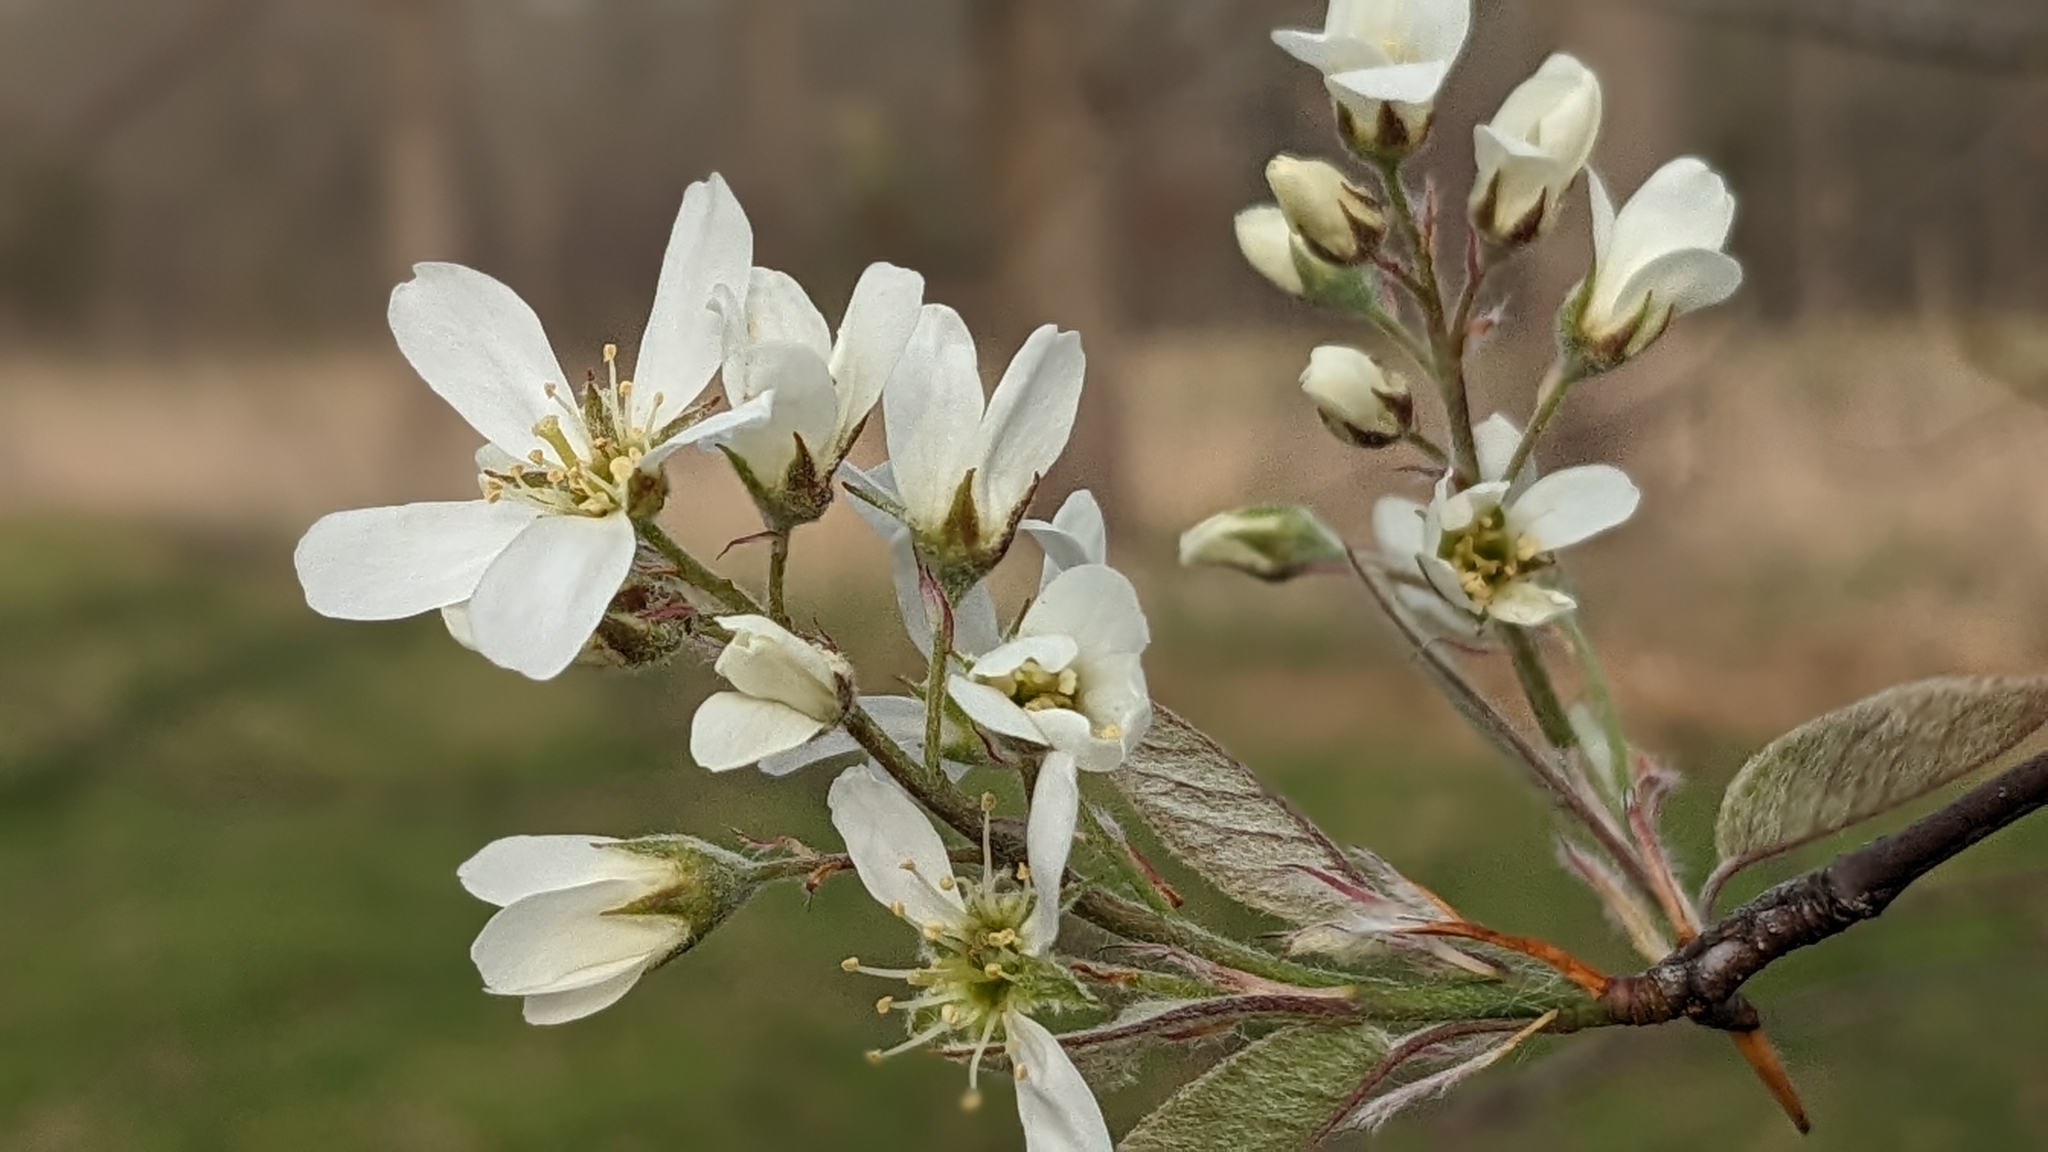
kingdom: Plantae
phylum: Tracheophyta
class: Magnoliopsida
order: Rosales
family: Rosaceae
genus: Amelanchier
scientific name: Amelanchier arborea
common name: Downy serviceberry
